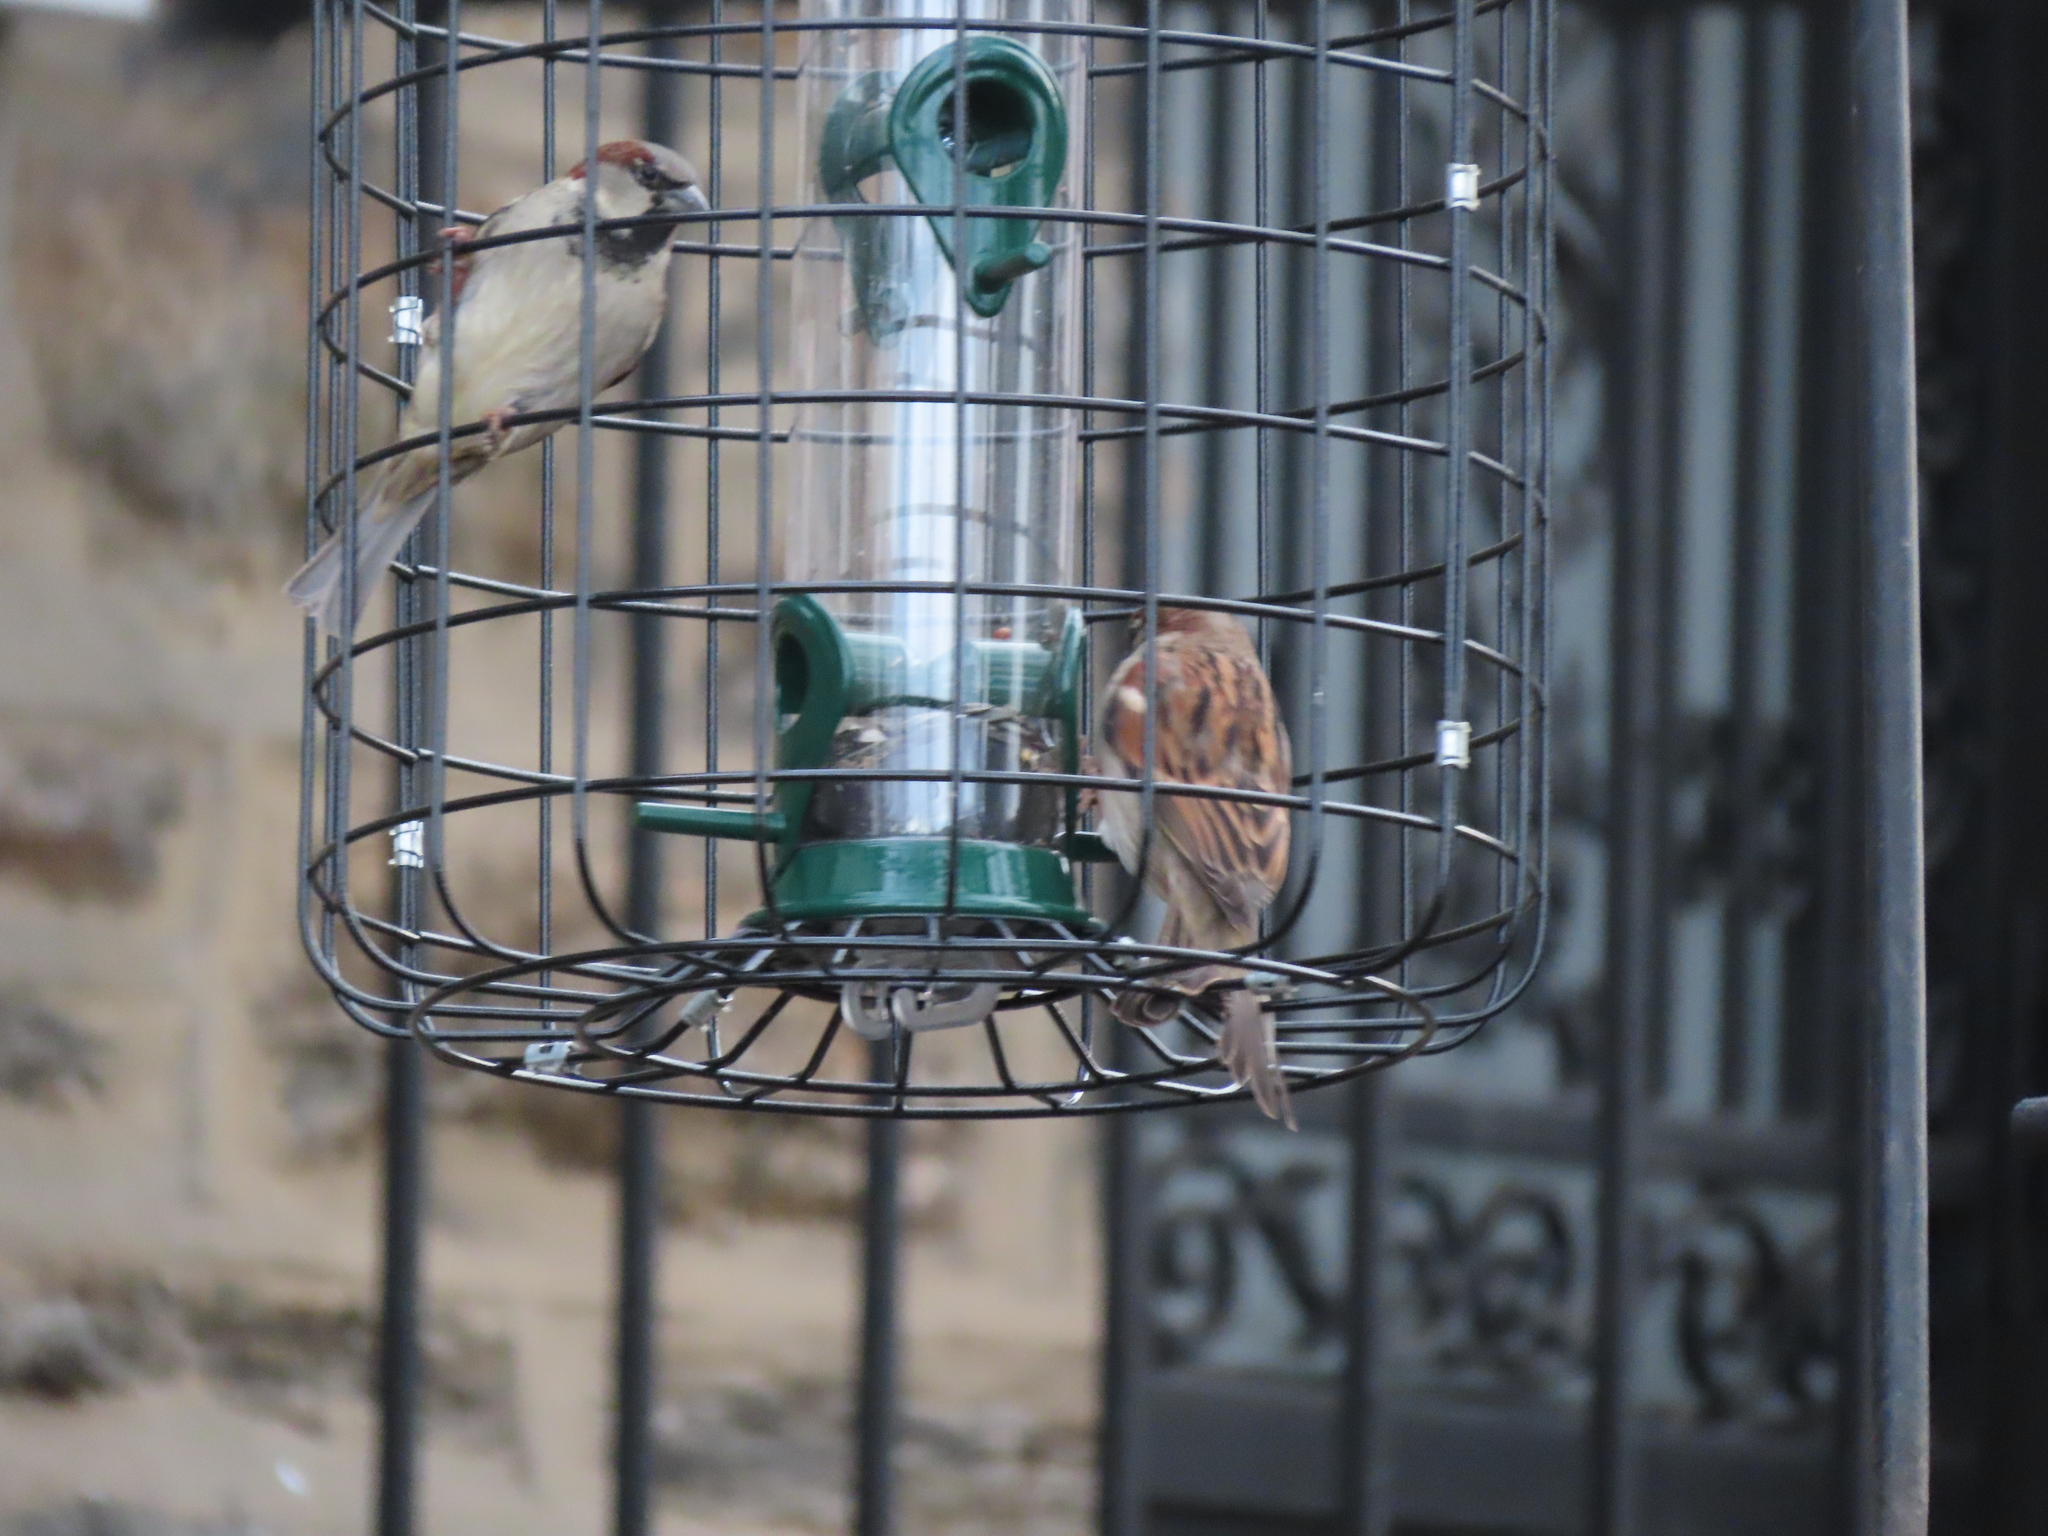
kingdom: Animalia
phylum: Chordata
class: Aves
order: Passeriformes
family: Passeridae
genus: Passer
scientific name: Passer domesticus
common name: House sparrow
